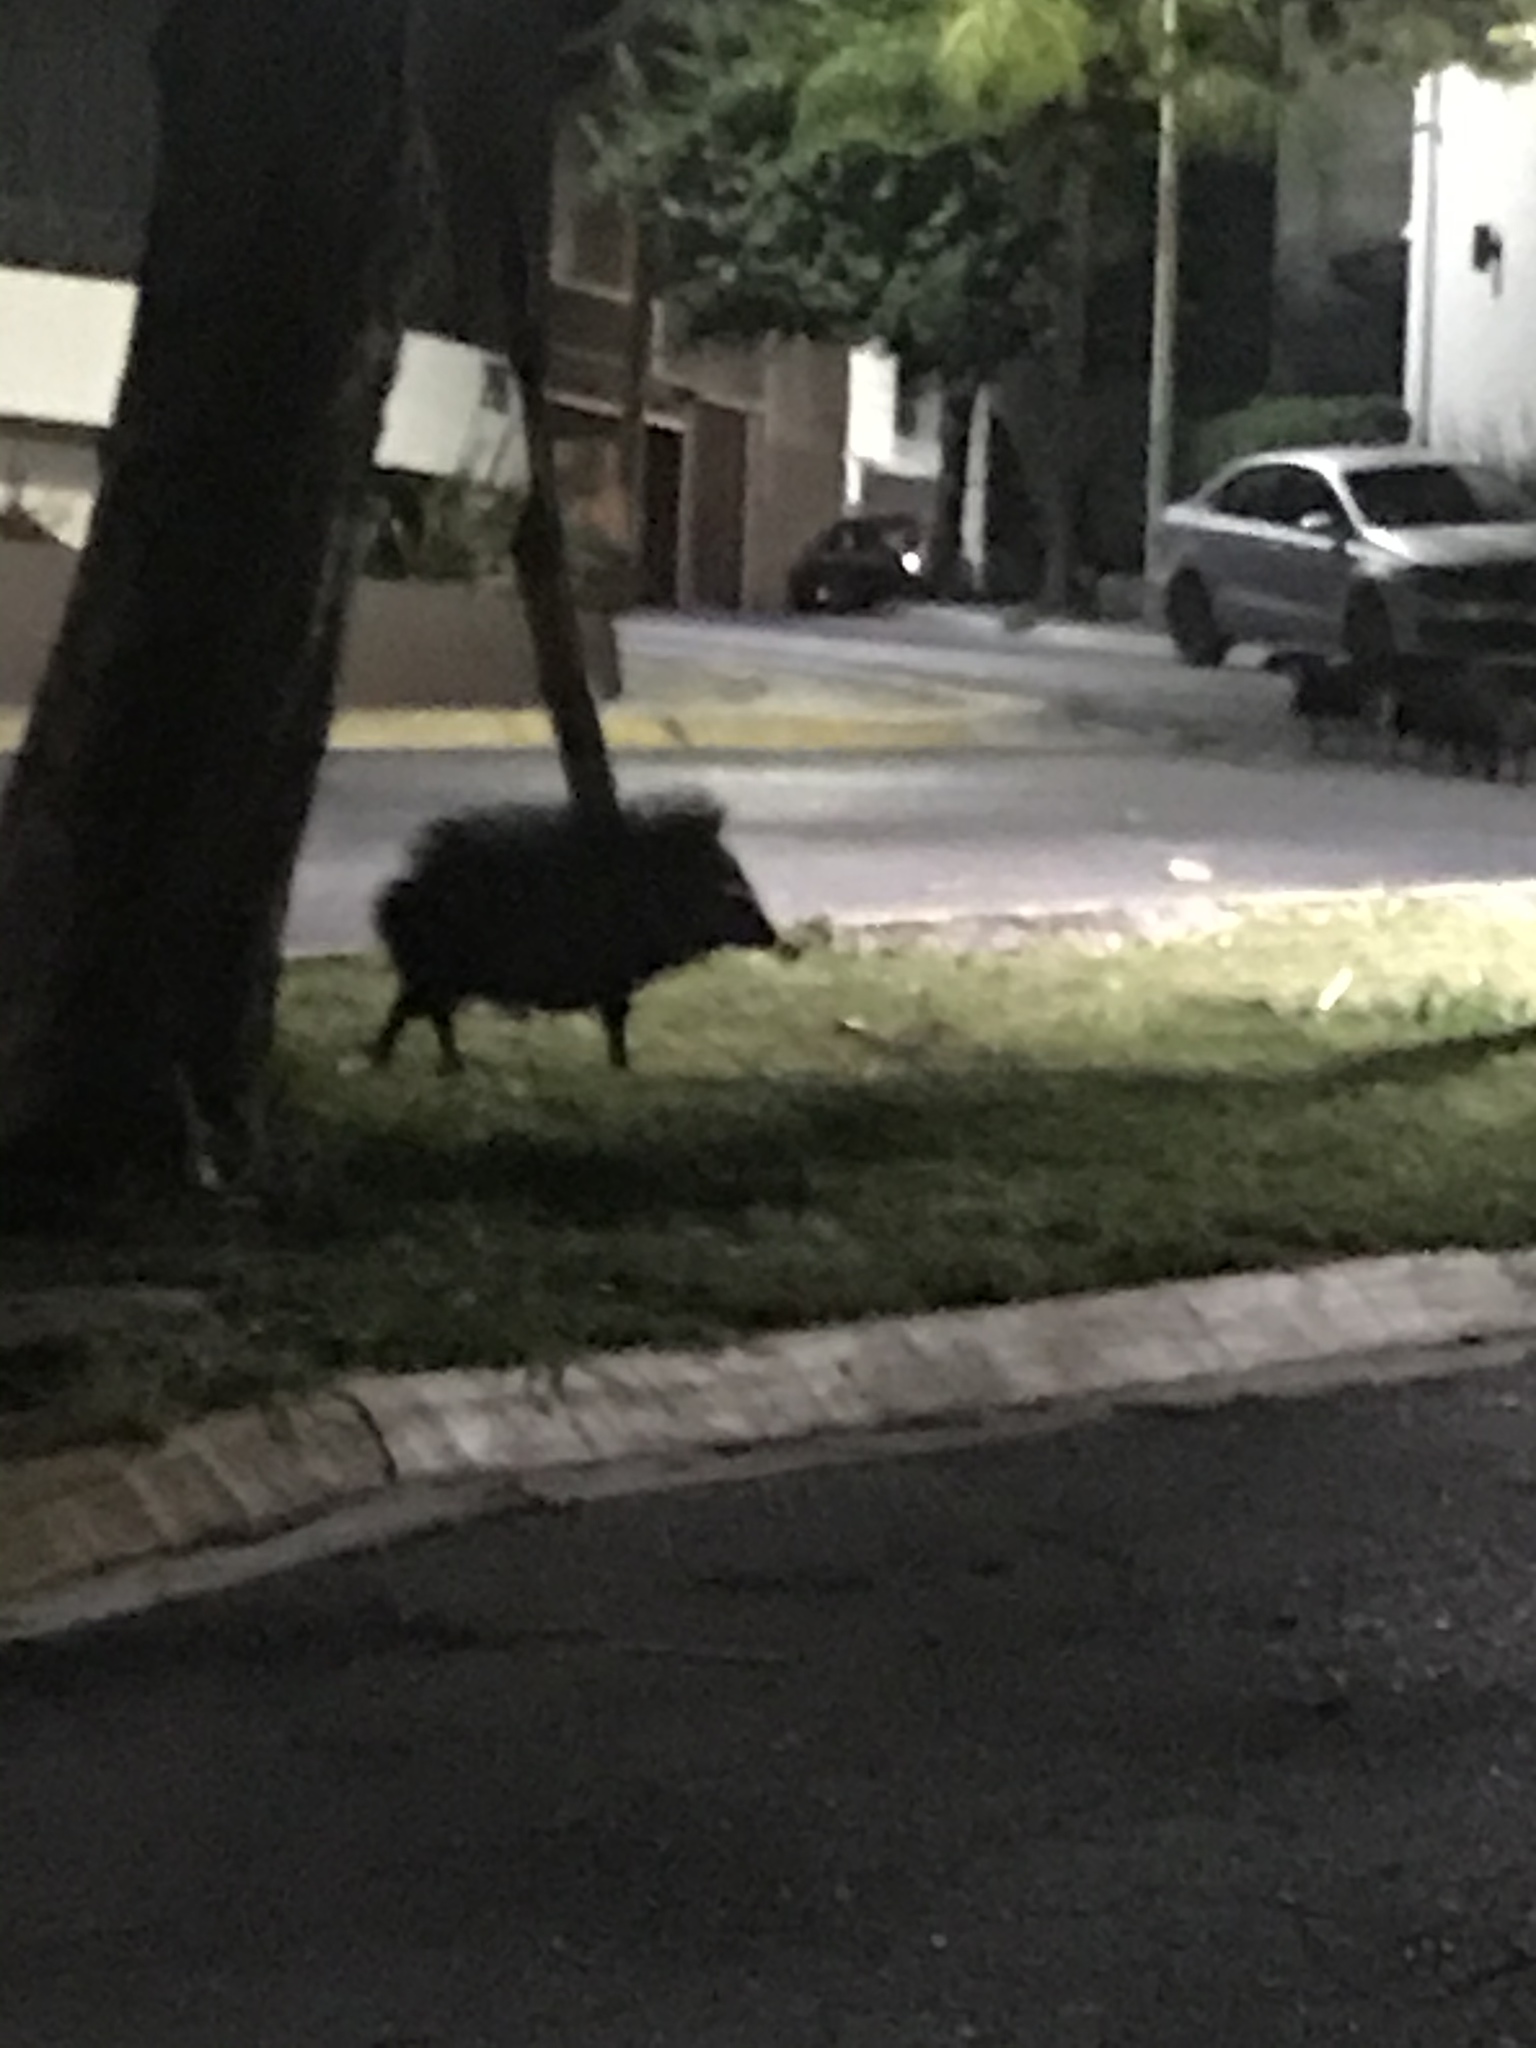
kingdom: Animalia
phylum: Chordata
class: Mammalia
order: Artiodactyla
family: Tayassuidae
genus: Pecari
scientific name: Pecari tajacu
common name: Collared peccary
